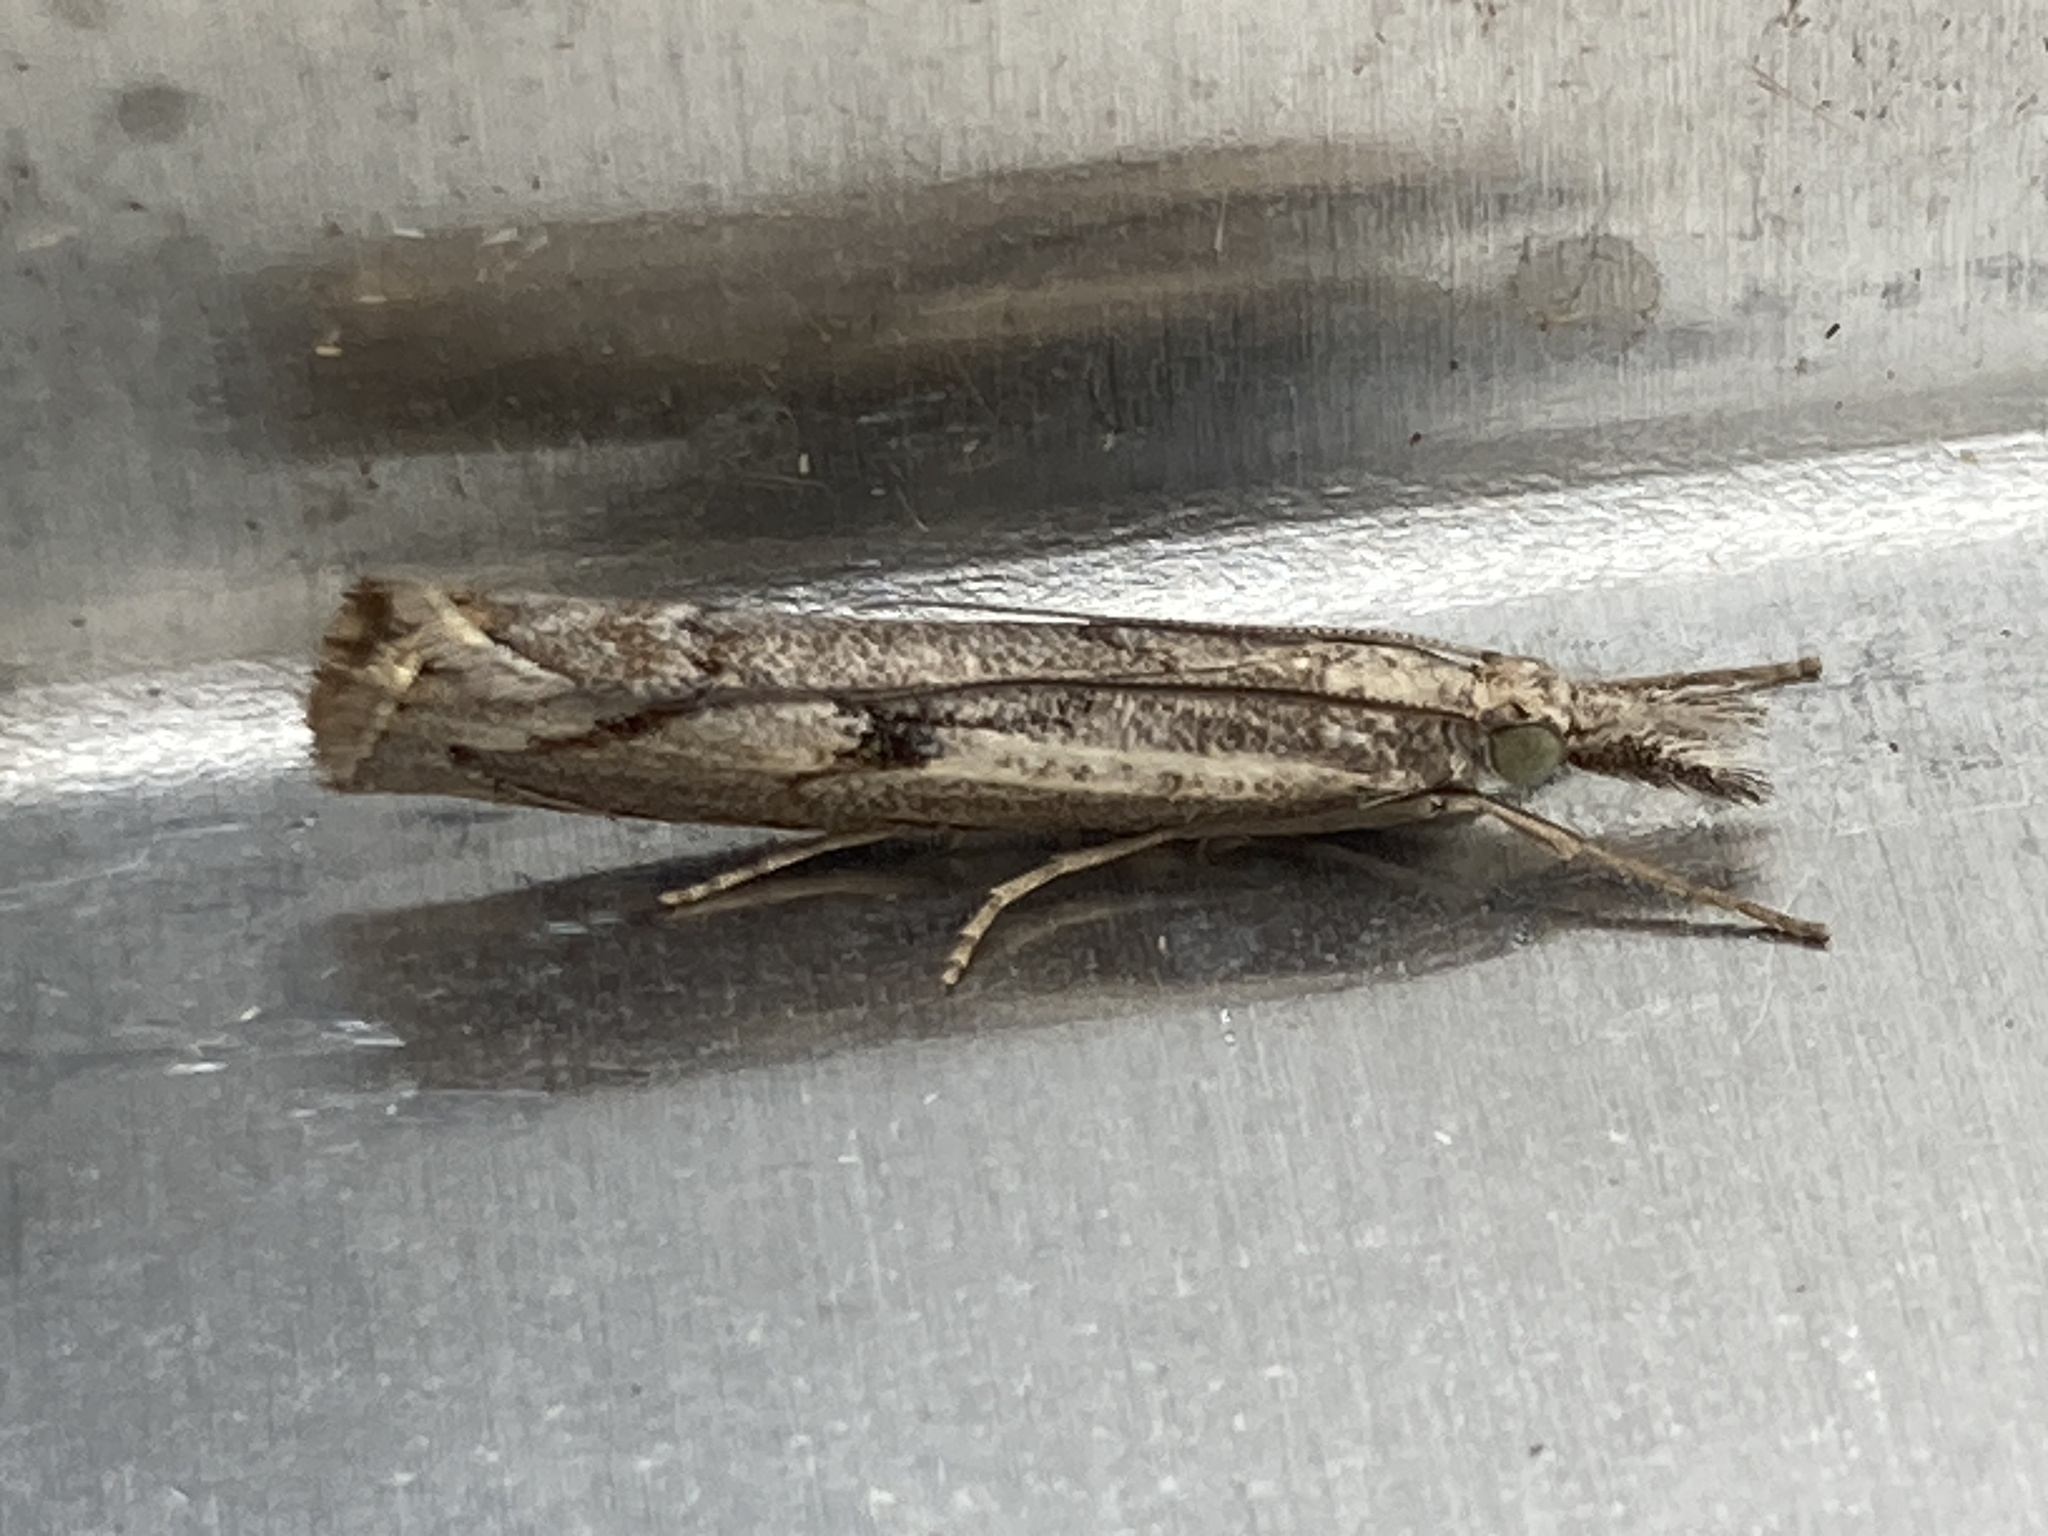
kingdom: Animalia
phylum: Arthropoda
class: Insecta
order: Lepidoptera
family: Crambidae
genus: Agriphila
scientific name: Agriphila geniculea
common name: Elbow-stripe grass-veneer
